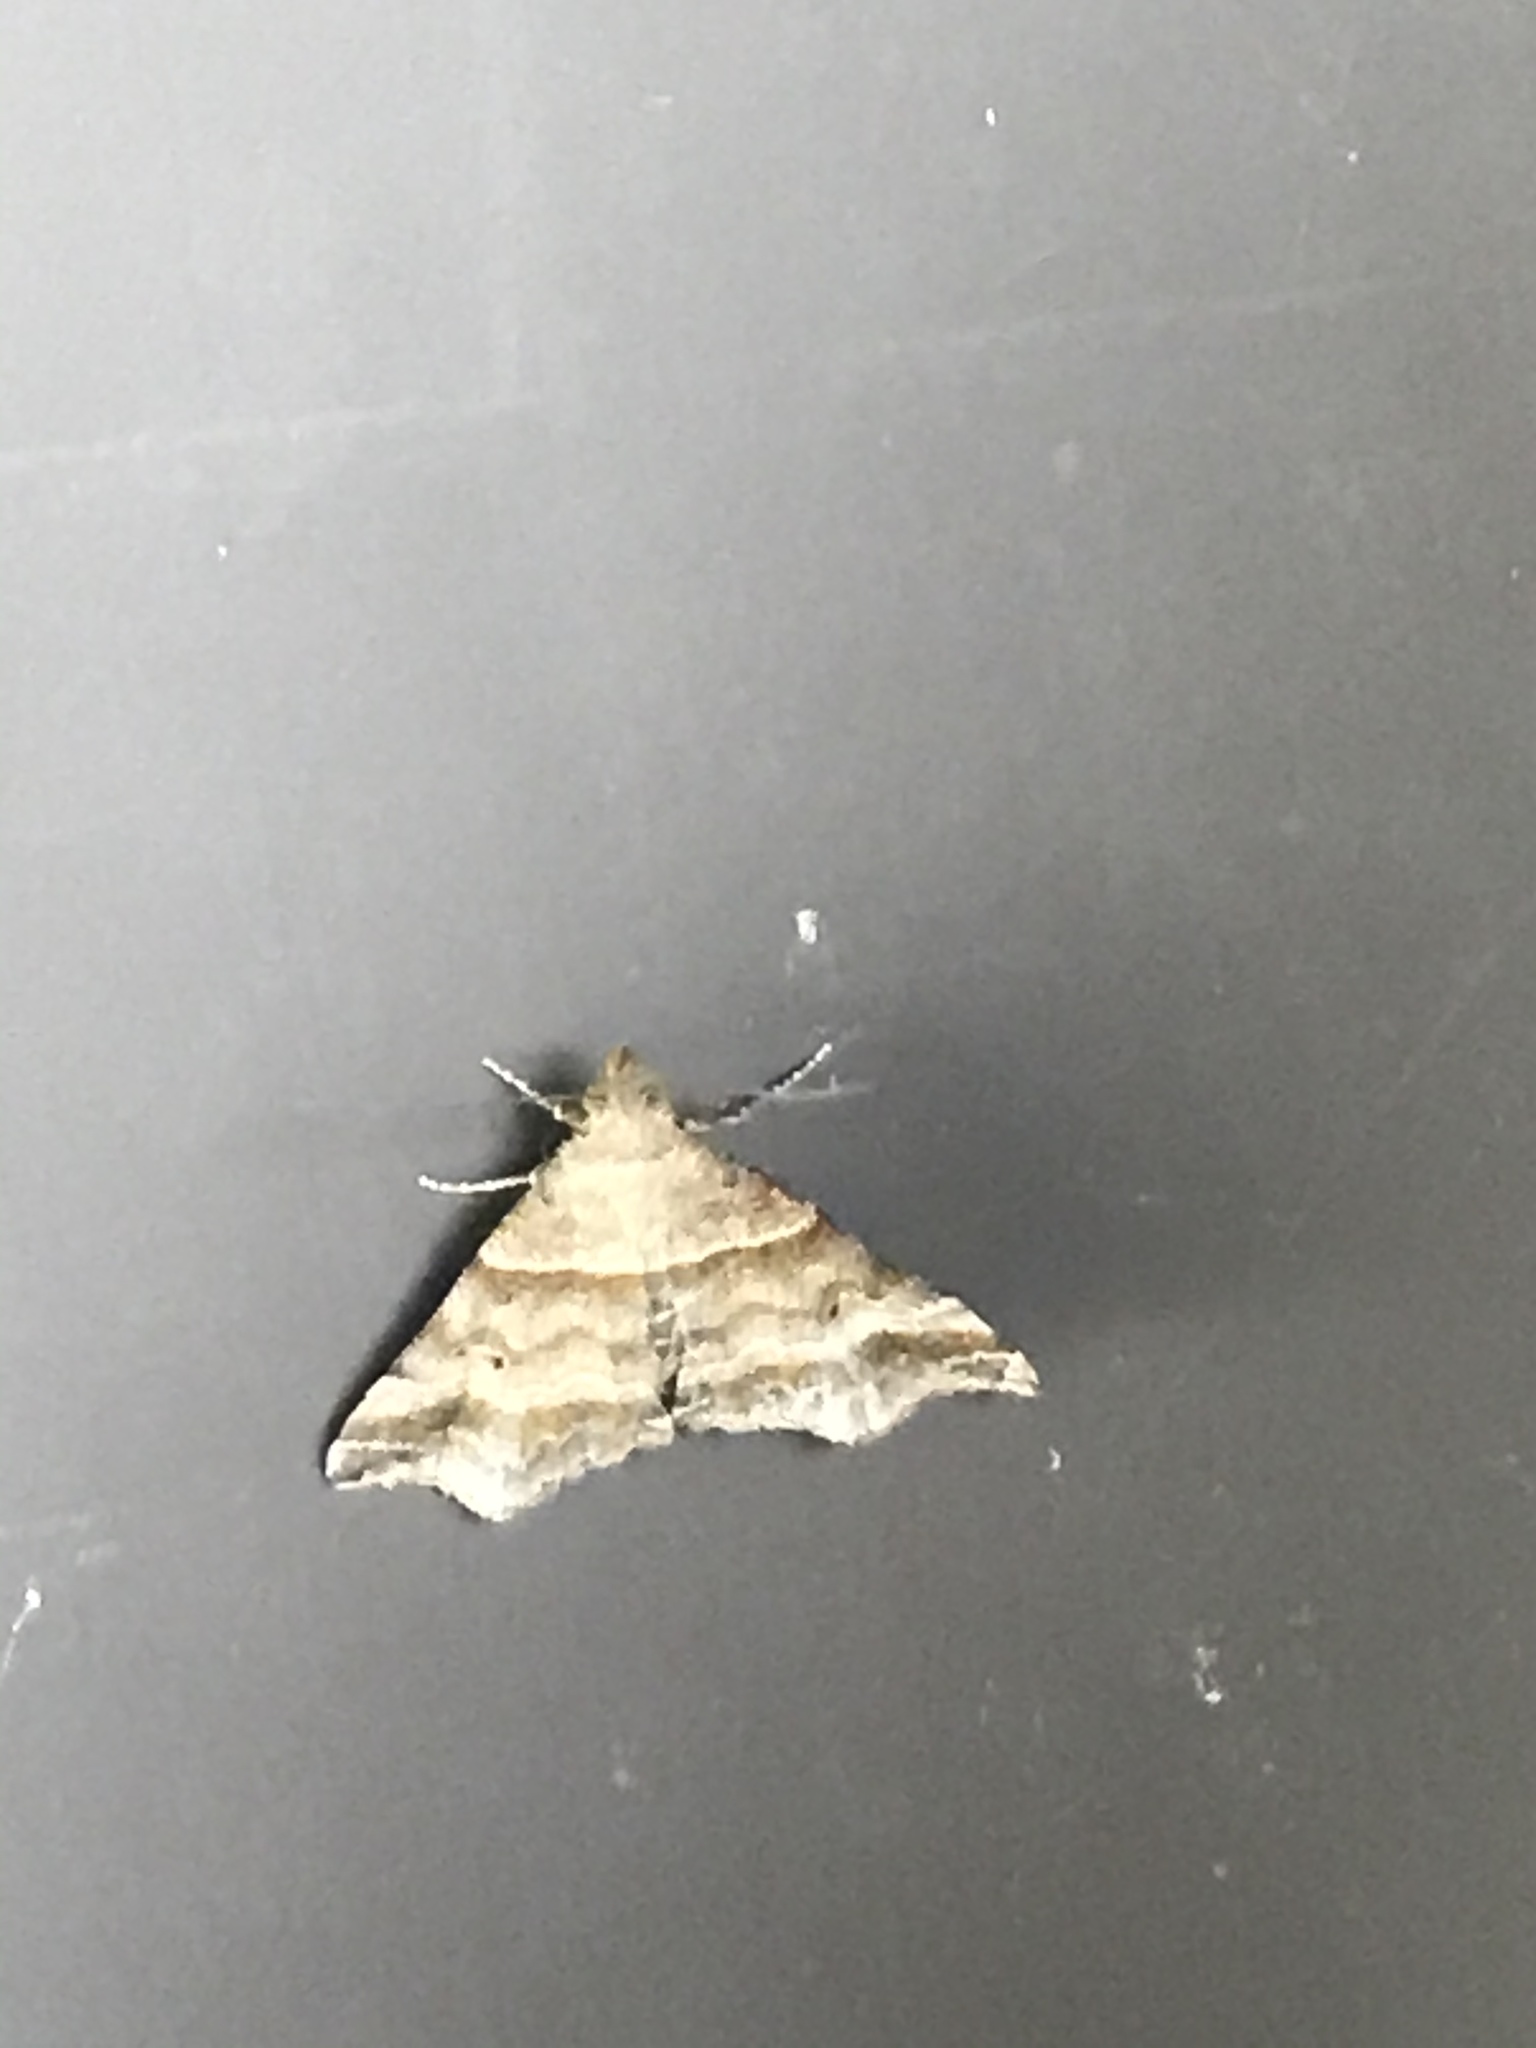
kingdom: Animalia
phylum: Arthropoda
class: Insecta
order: Lepidoptera
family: Erebidae
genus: Phaeolita
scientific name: Phaeolita pyramusalis
